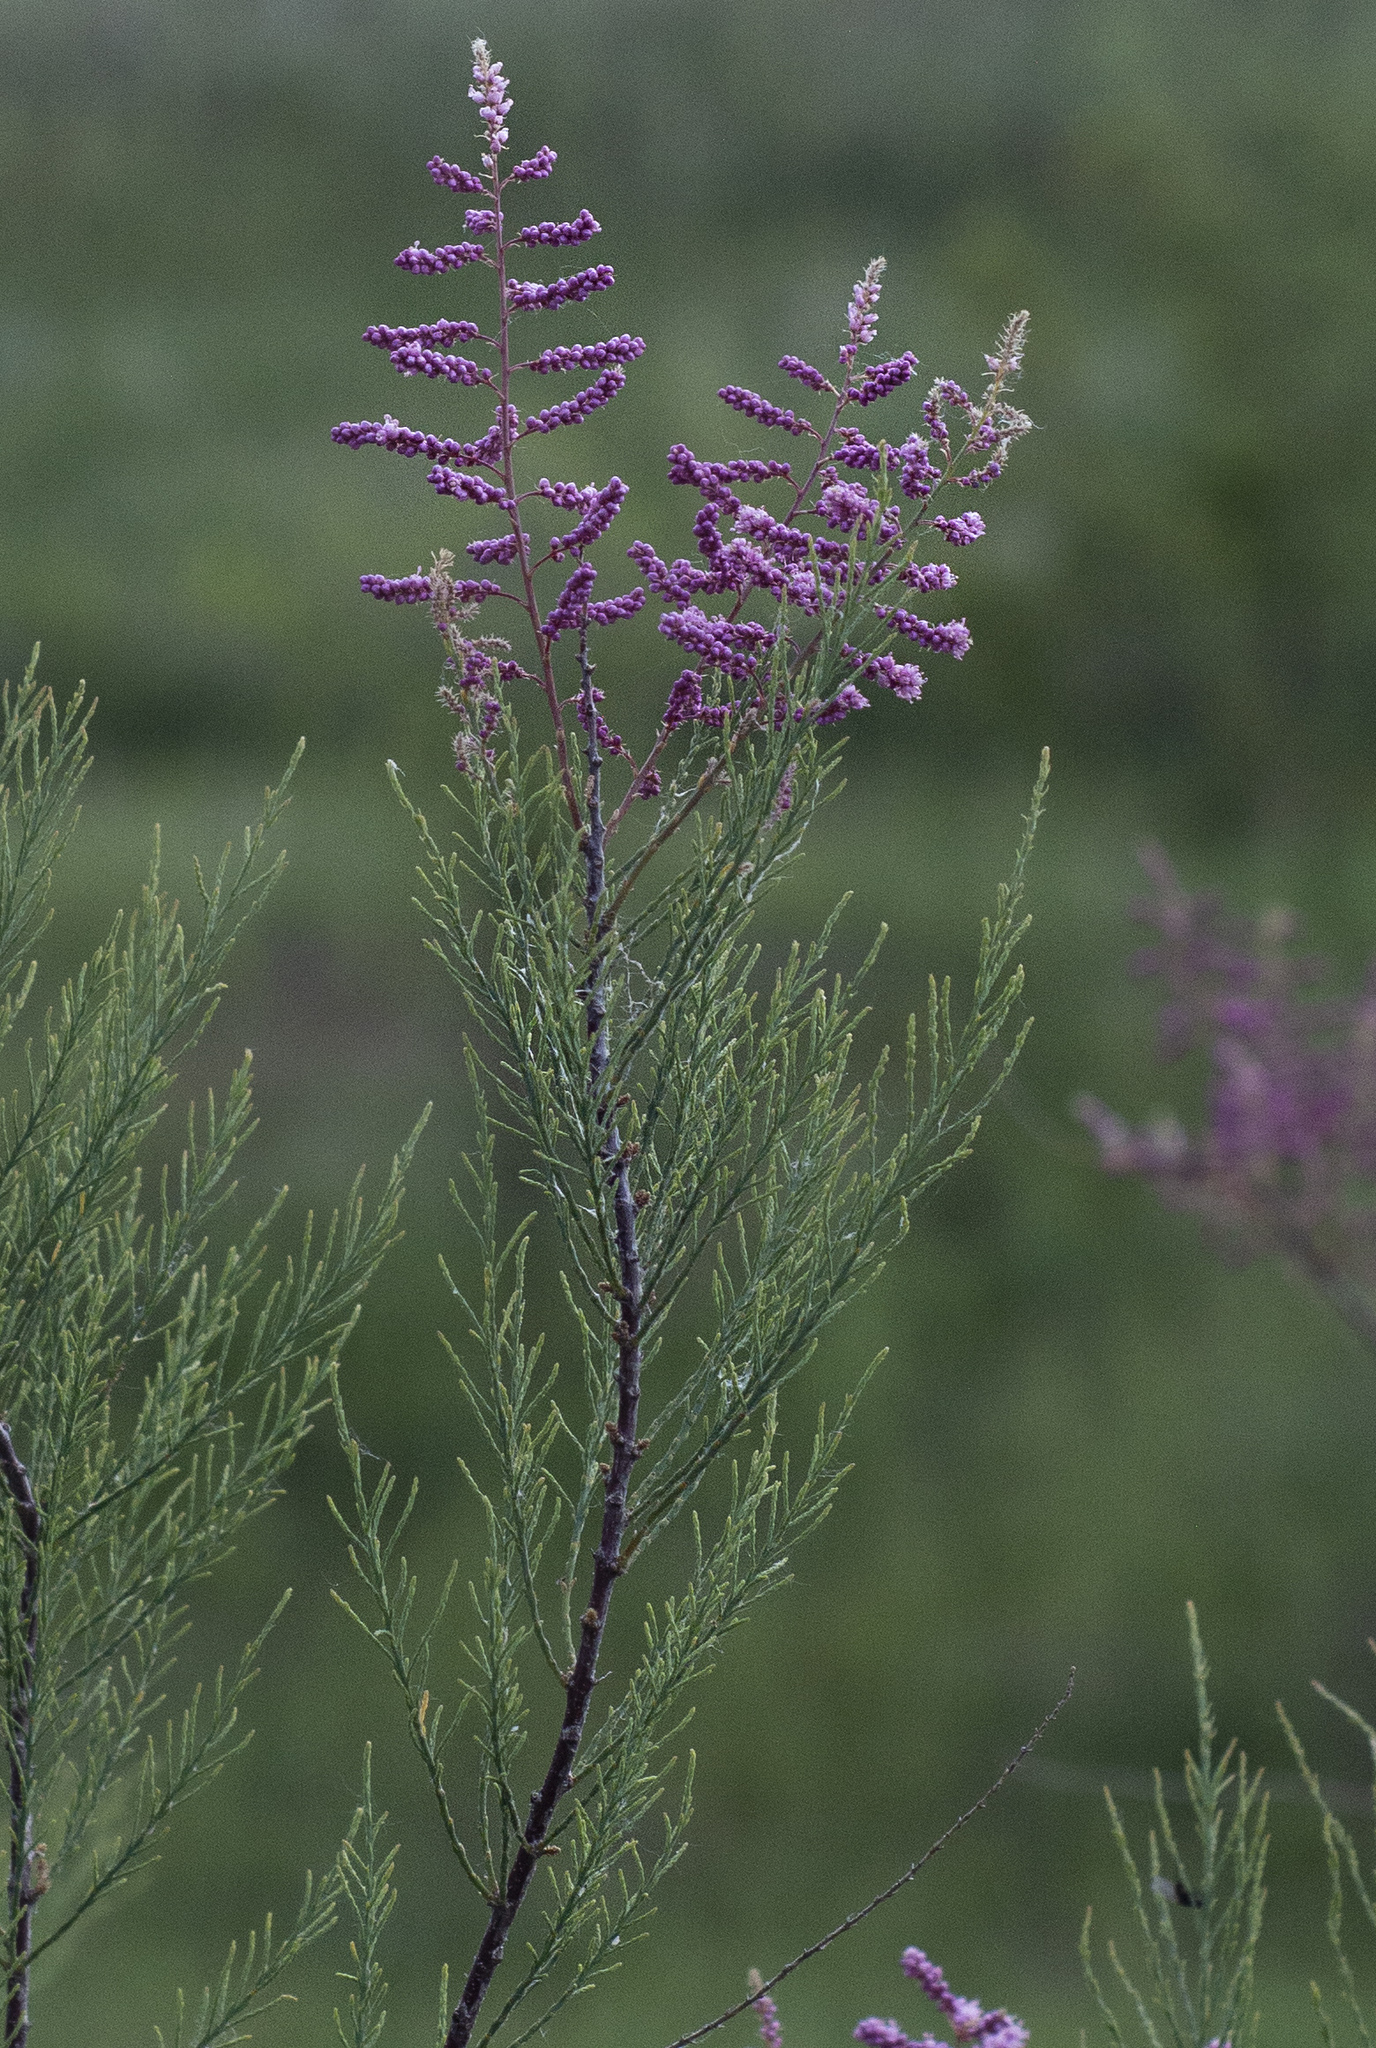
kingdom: Plantae
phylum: Tracheophyta
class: Magnoliopsida
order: Caryophyllales
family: Tamaricaceae
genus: Tamarix
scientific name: Tamarix ramosissima
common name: Pink tamarisk
